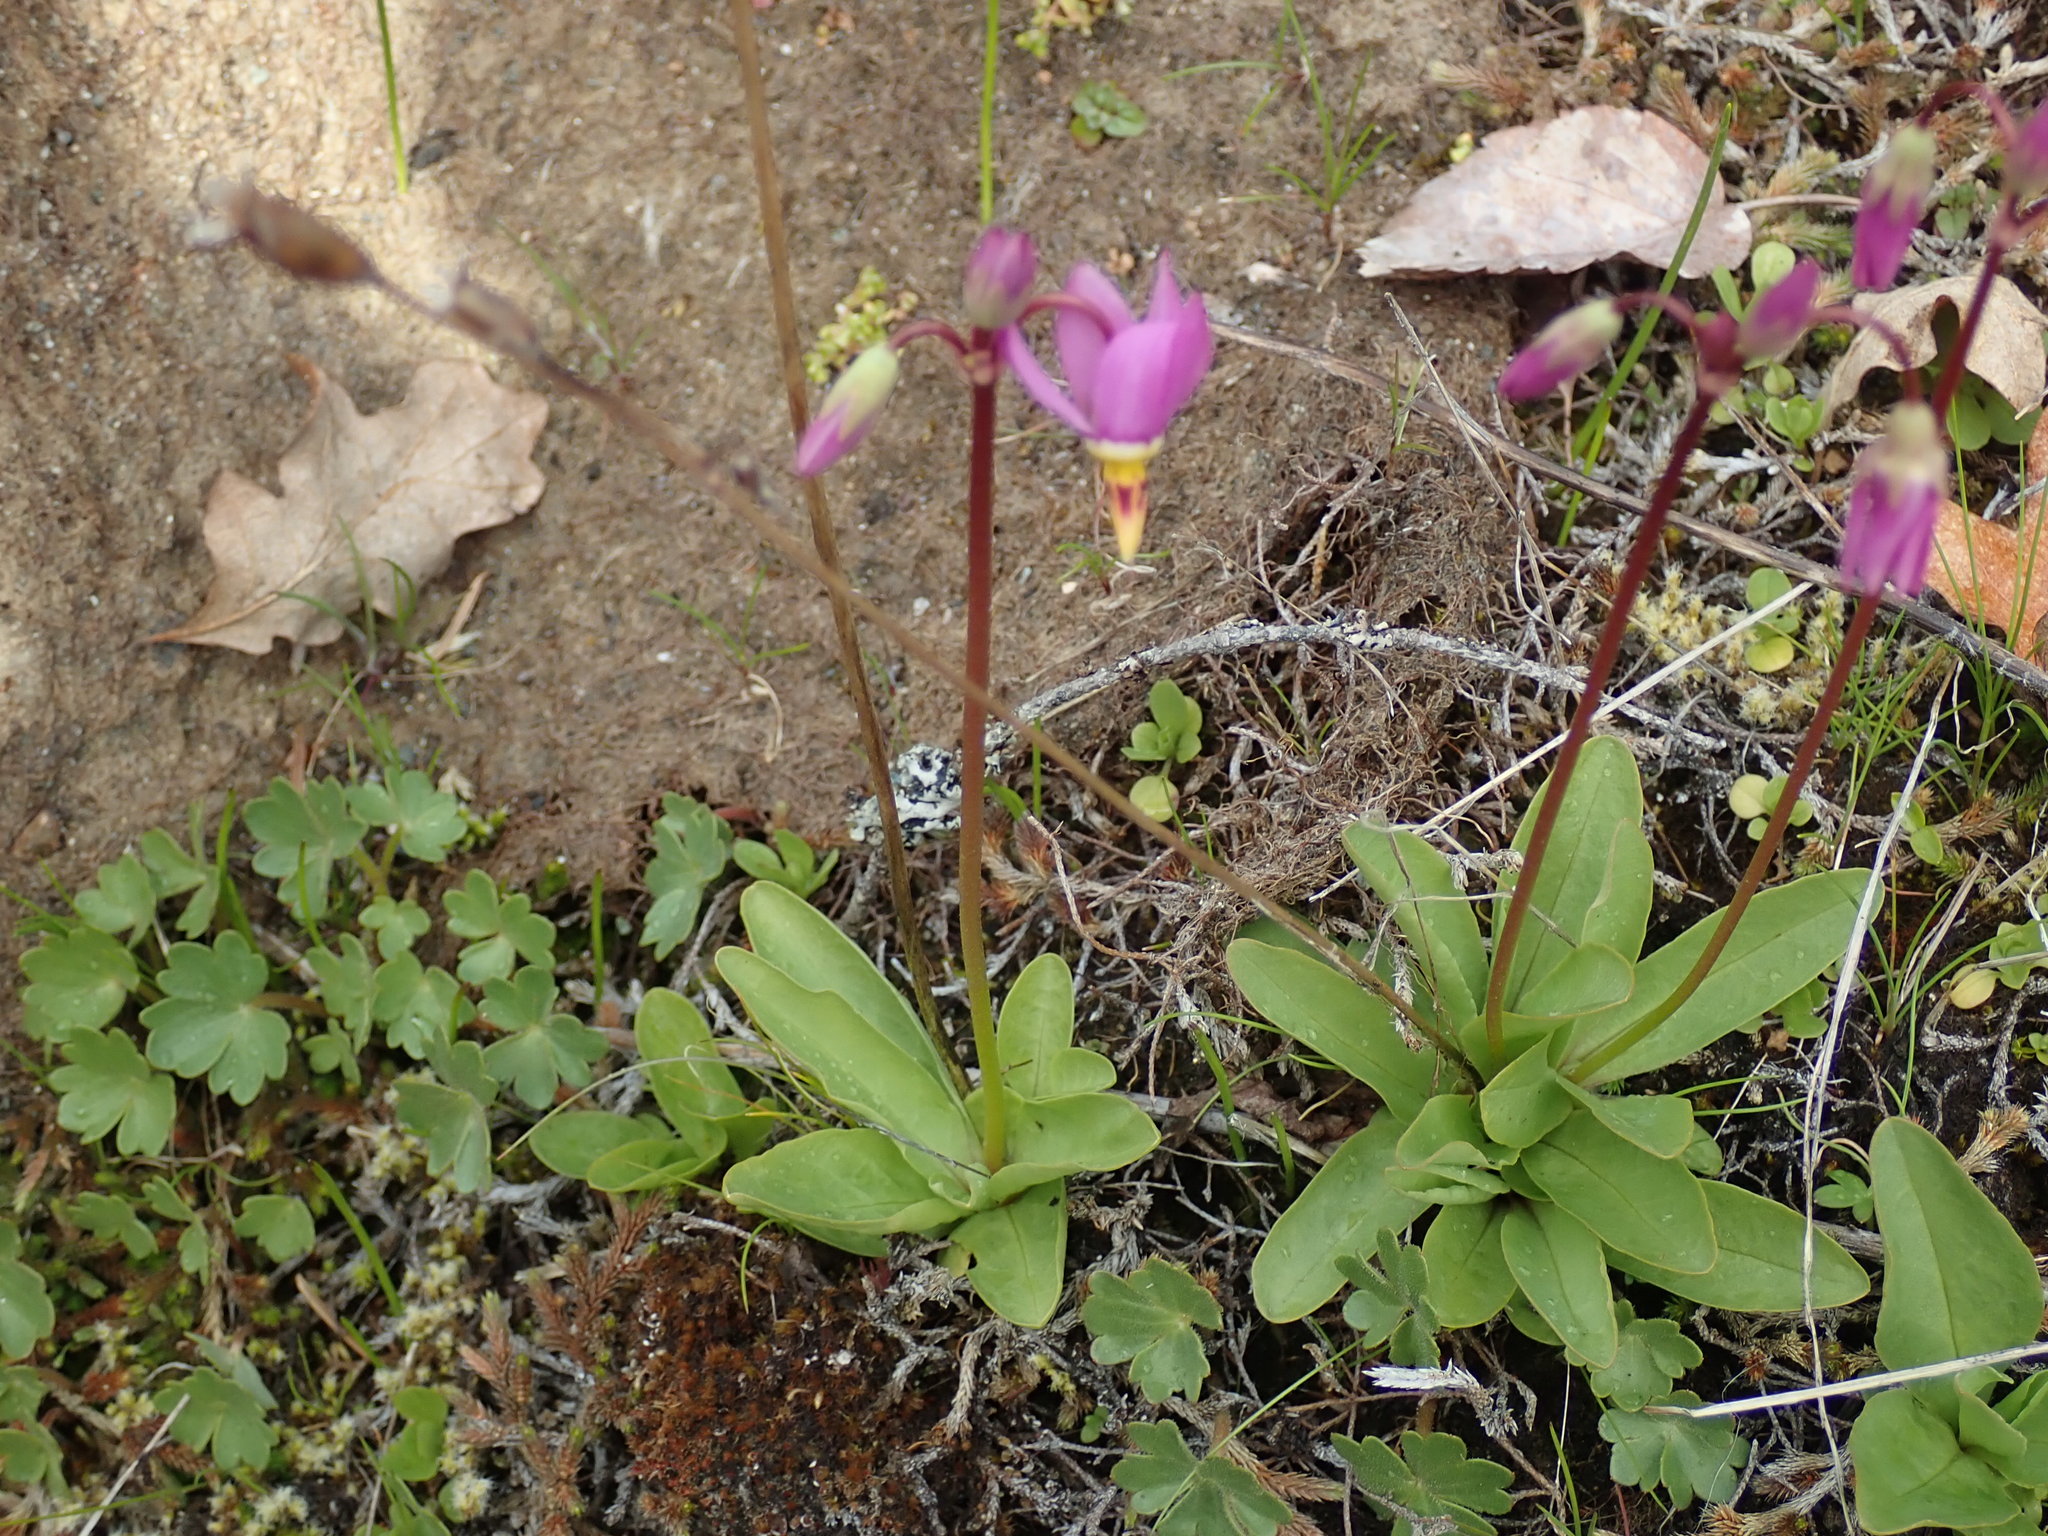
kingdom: Plantae
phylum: Tracheophyta
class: Magnoliopsida
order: Ericales
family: Primulaceae
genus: Dodecatheon
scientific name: Dodecatheon pulchellum
